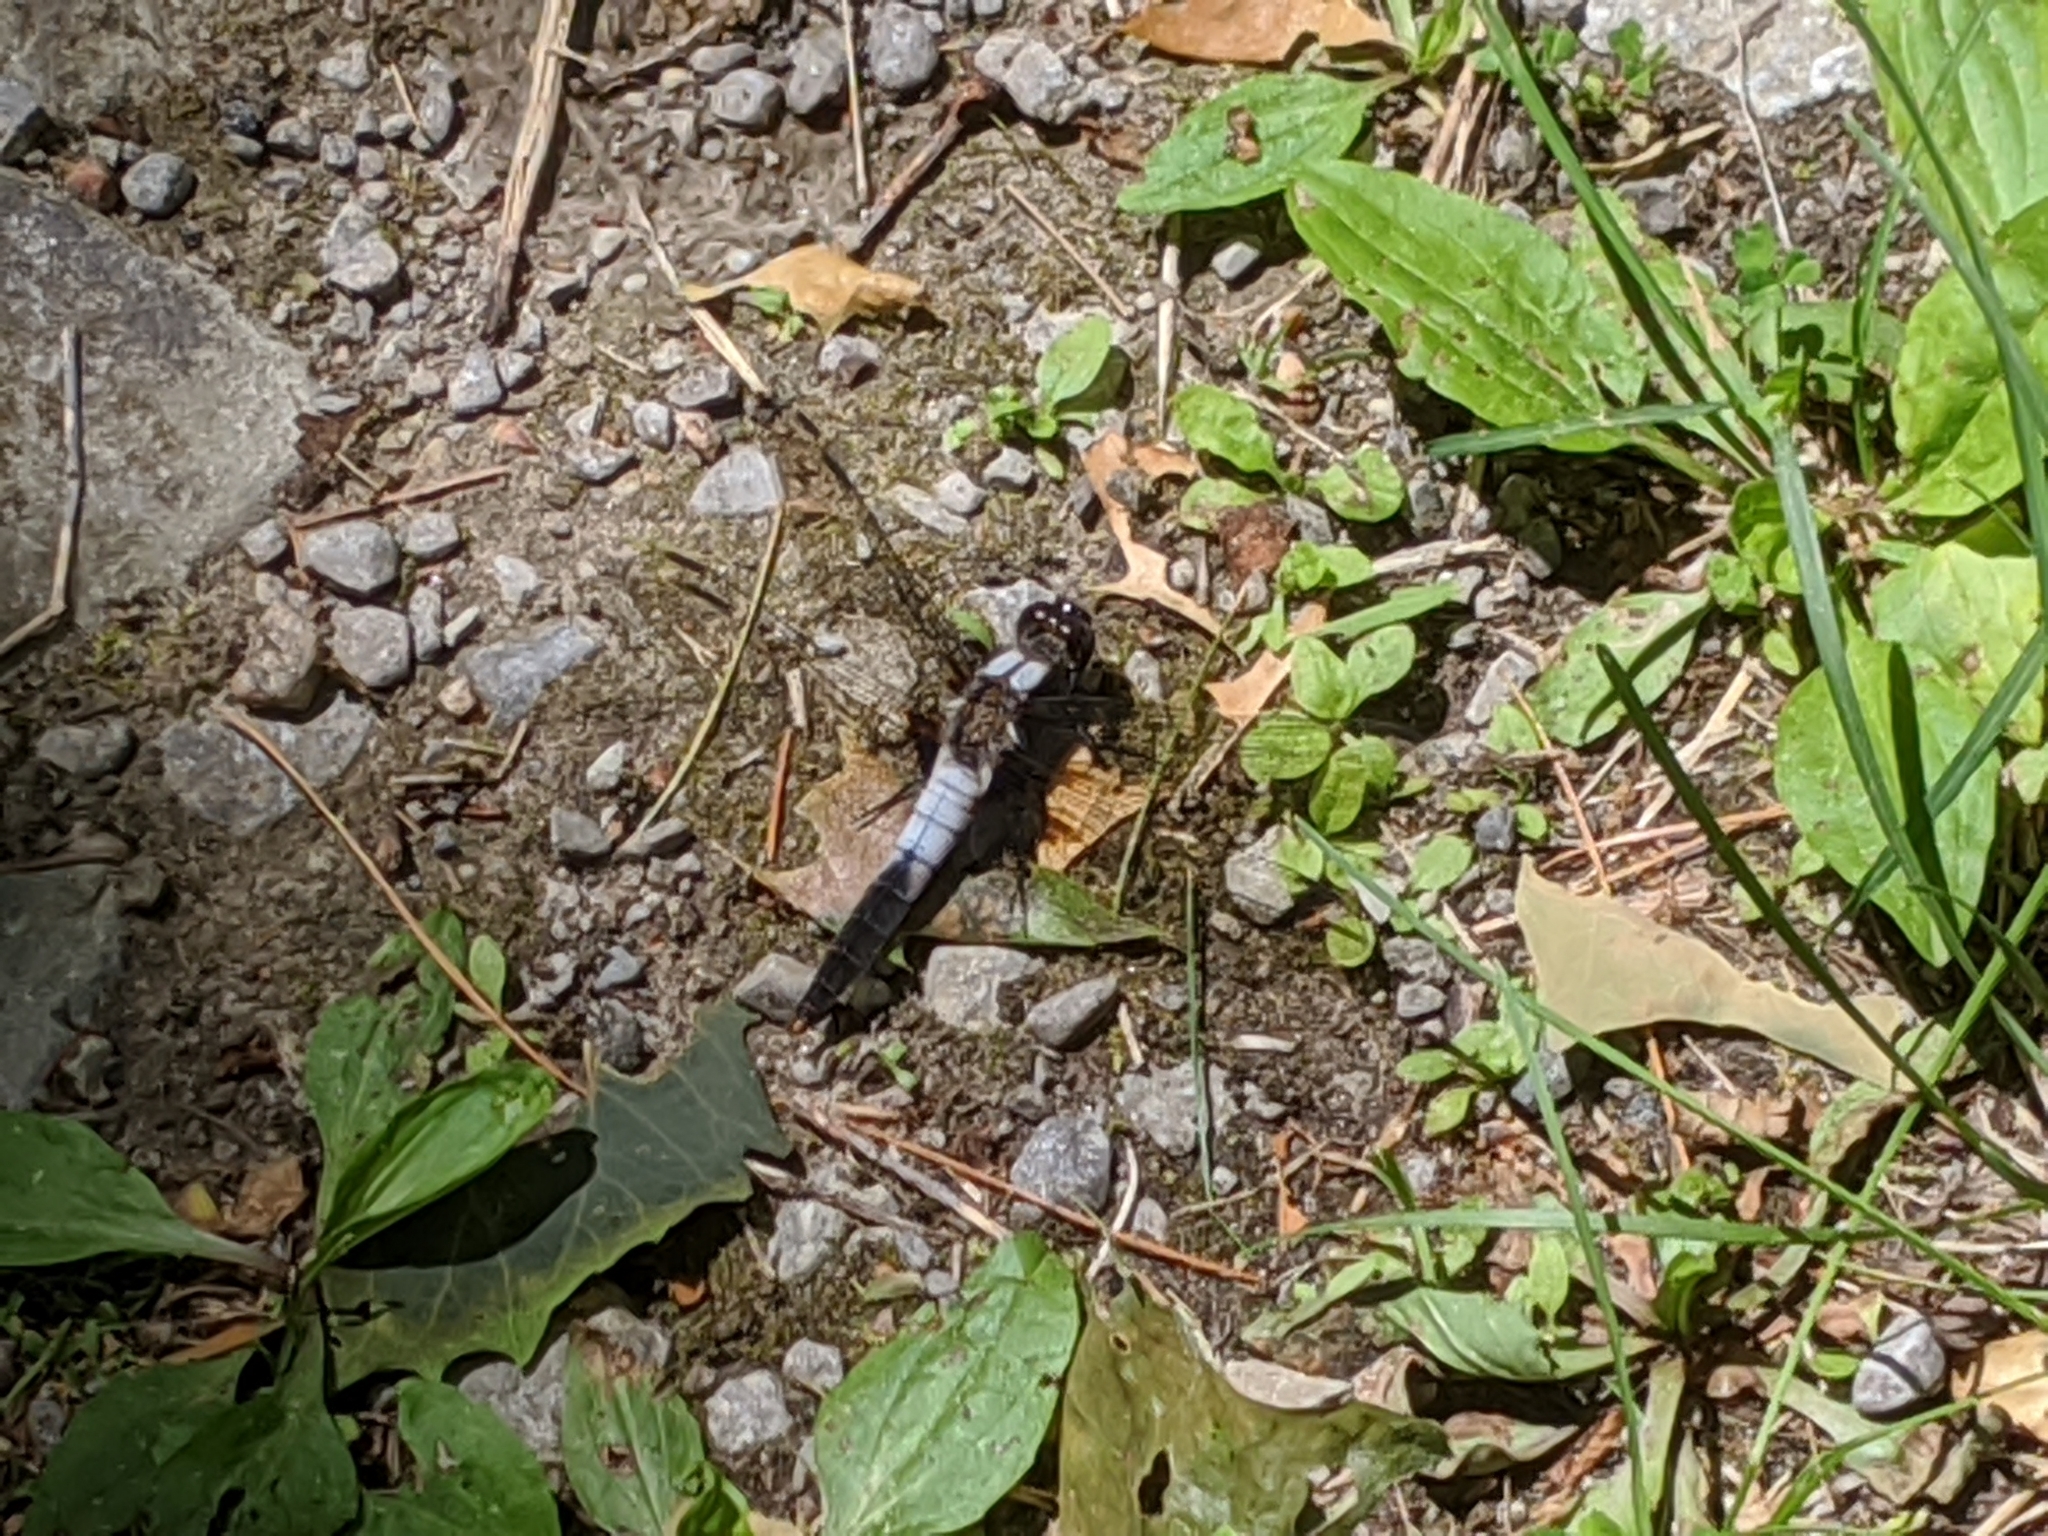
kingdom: Animalia
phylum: Arthropoda
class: Insecta
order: Odonata
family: Libellulidae
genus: Ladona
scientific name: Ladona julia
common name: Chalk-fronted corporal
